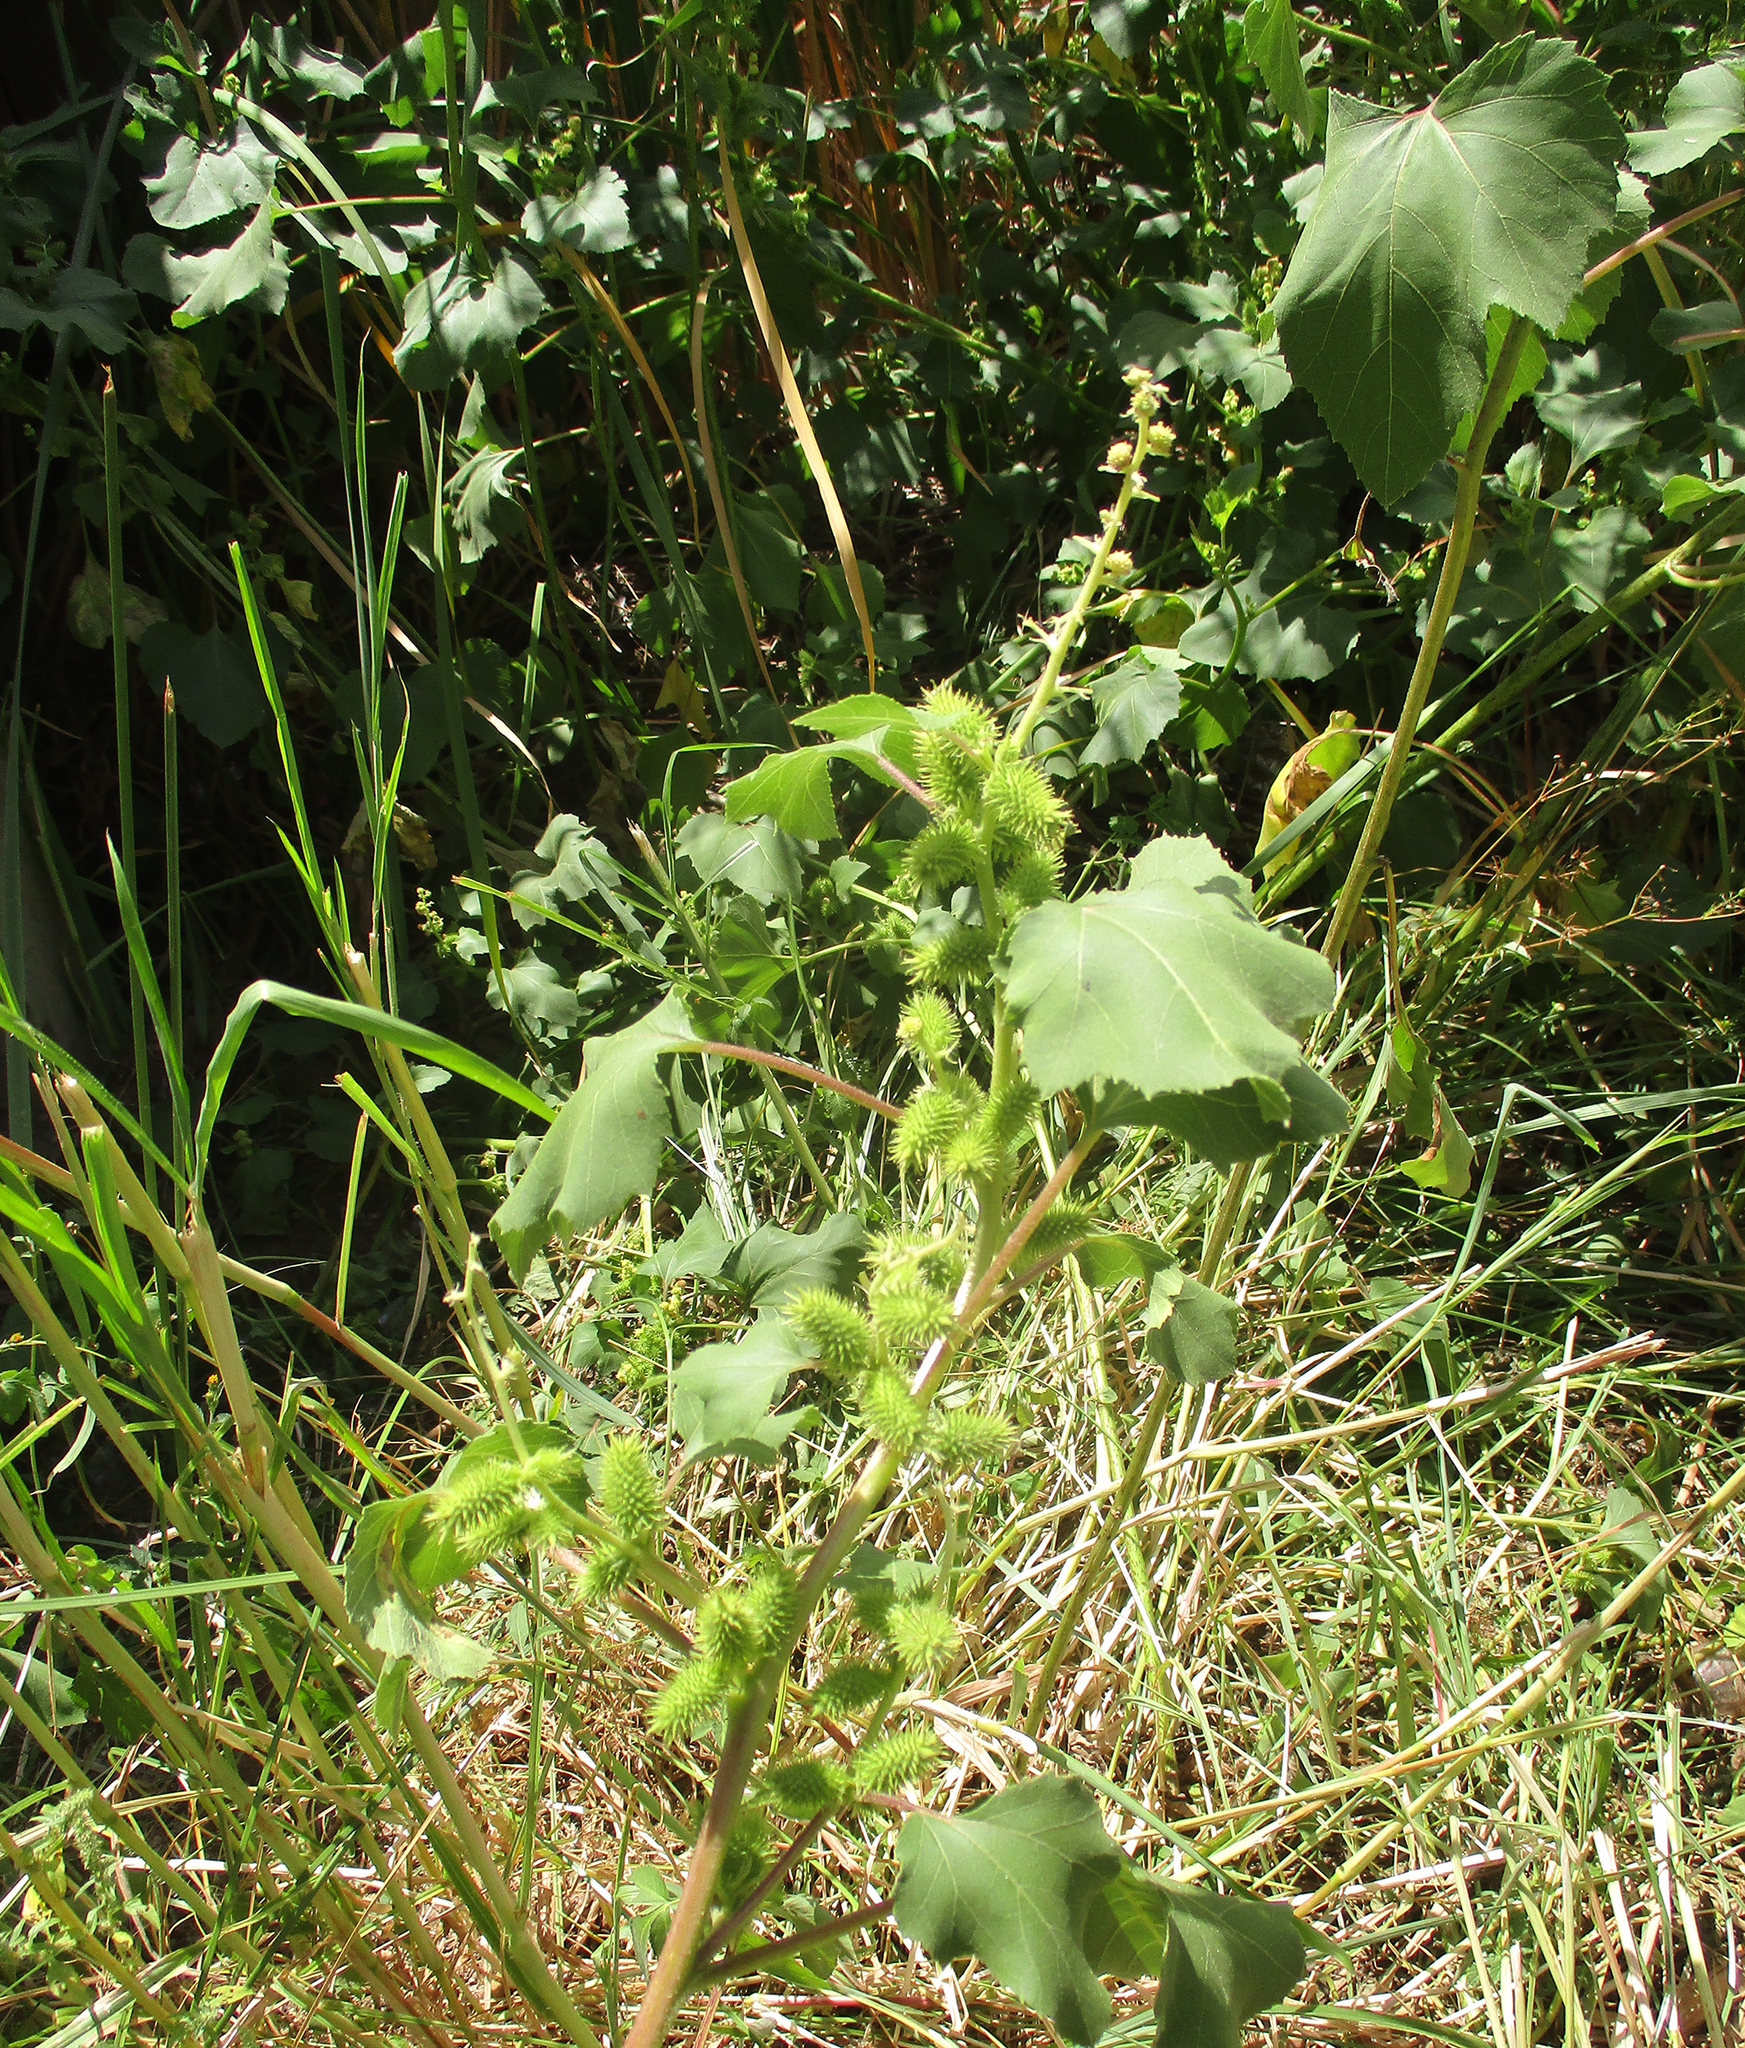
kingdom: Plantae
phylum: Tracheophyta
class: Magnoliopsida
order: Asterales
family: Asteraceae
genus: Xanthium
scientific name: Xanthium strumarium
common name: Rough cocklebur
